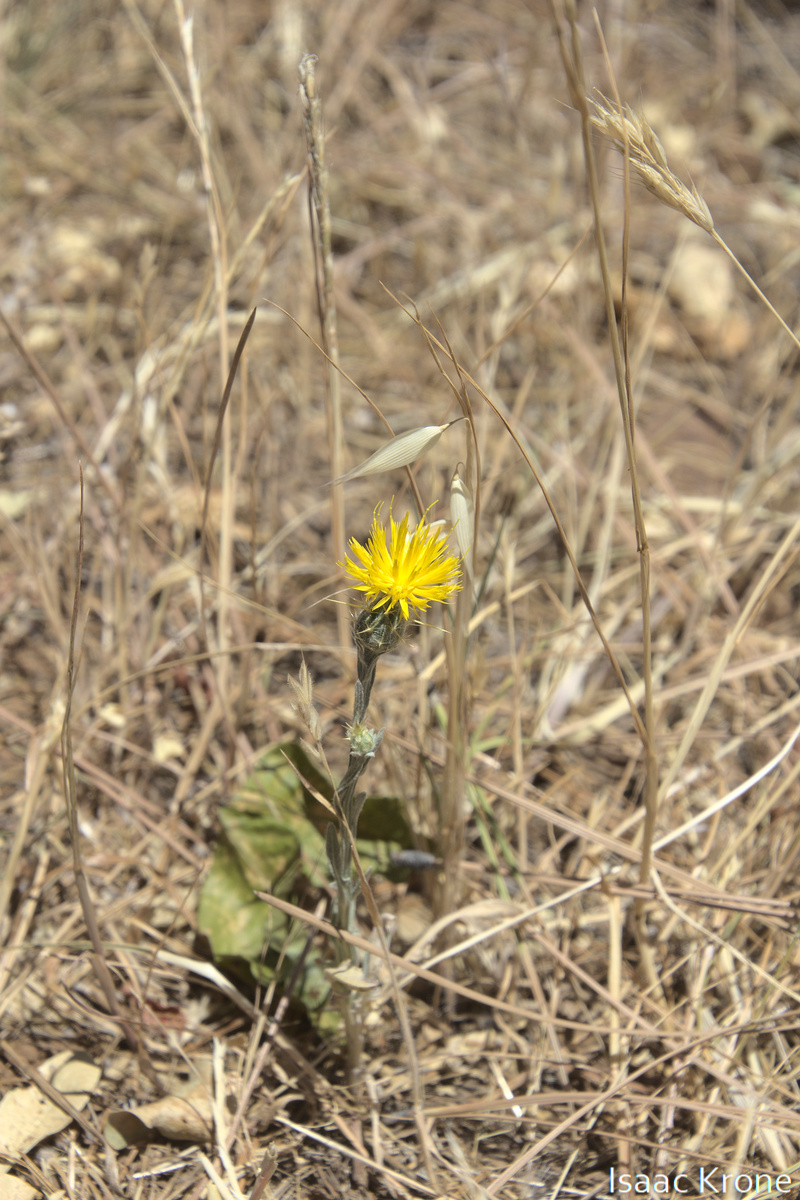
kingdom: Plantae
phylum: Tracheophyta
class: Magnoliopsida
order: Asterales
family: Asteraceae
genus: Centaurea
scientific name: Centaurea solstitialis
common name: Yellow star-thistle
